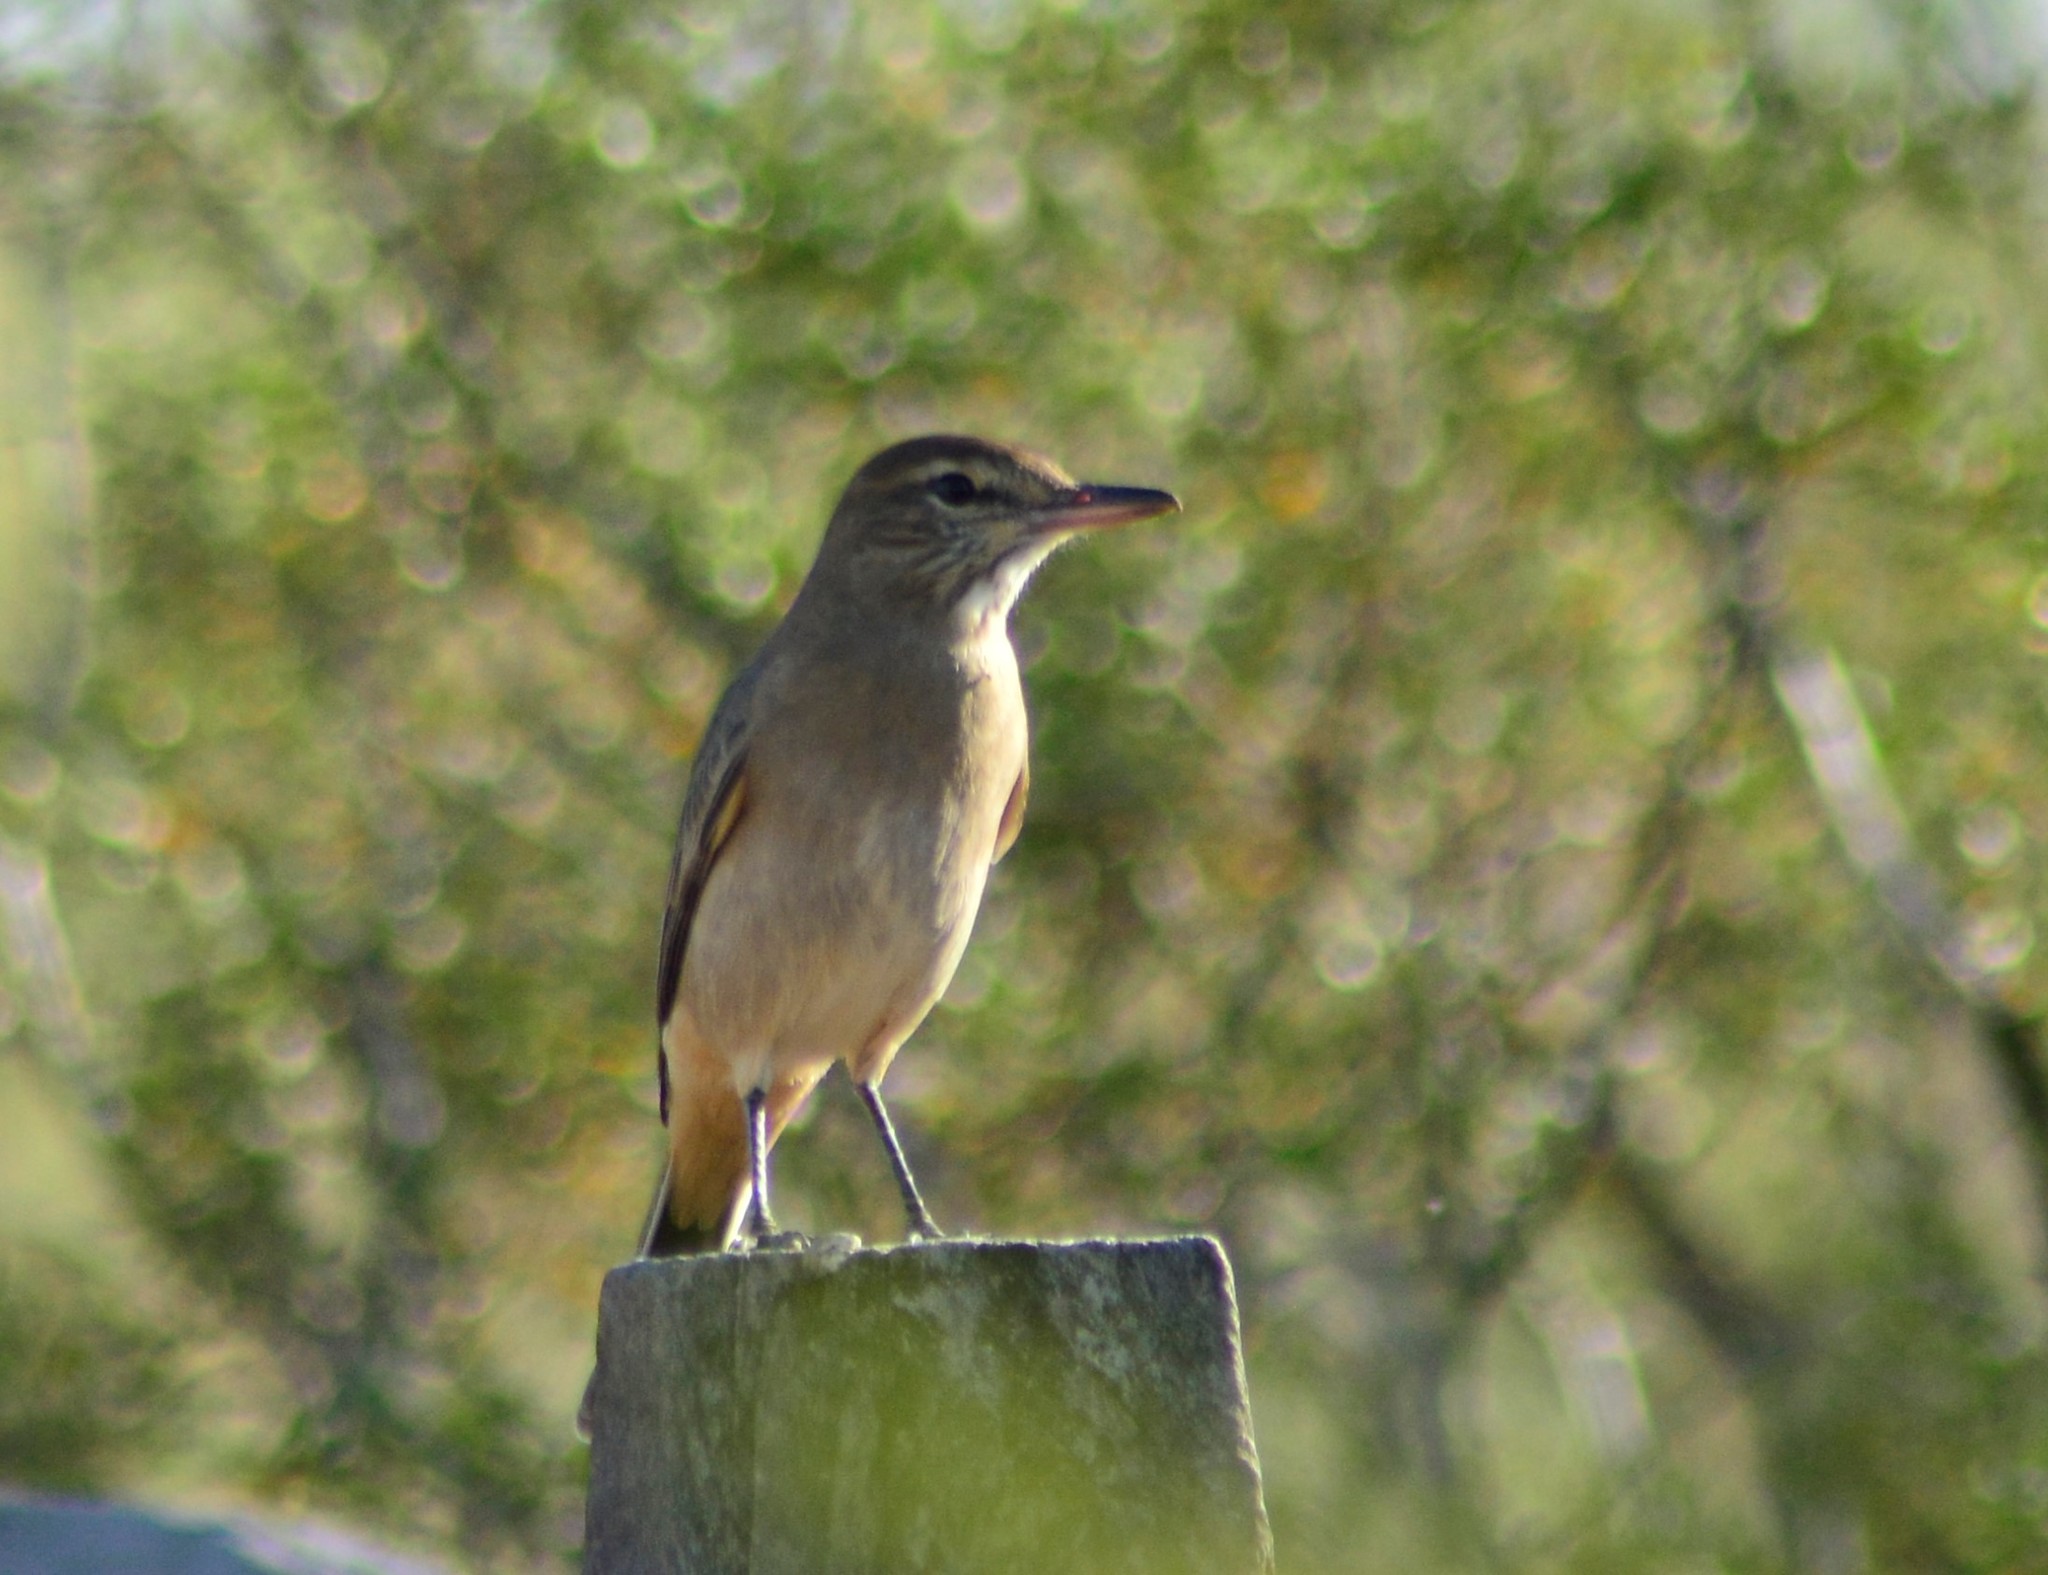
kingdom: Animalia
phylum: Chordata
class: Aves
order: Passeriformes
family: Tyrannidae
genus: Agriornis
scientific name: Agriornis micropterus
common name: Grey-bellied shrike-tyrant
